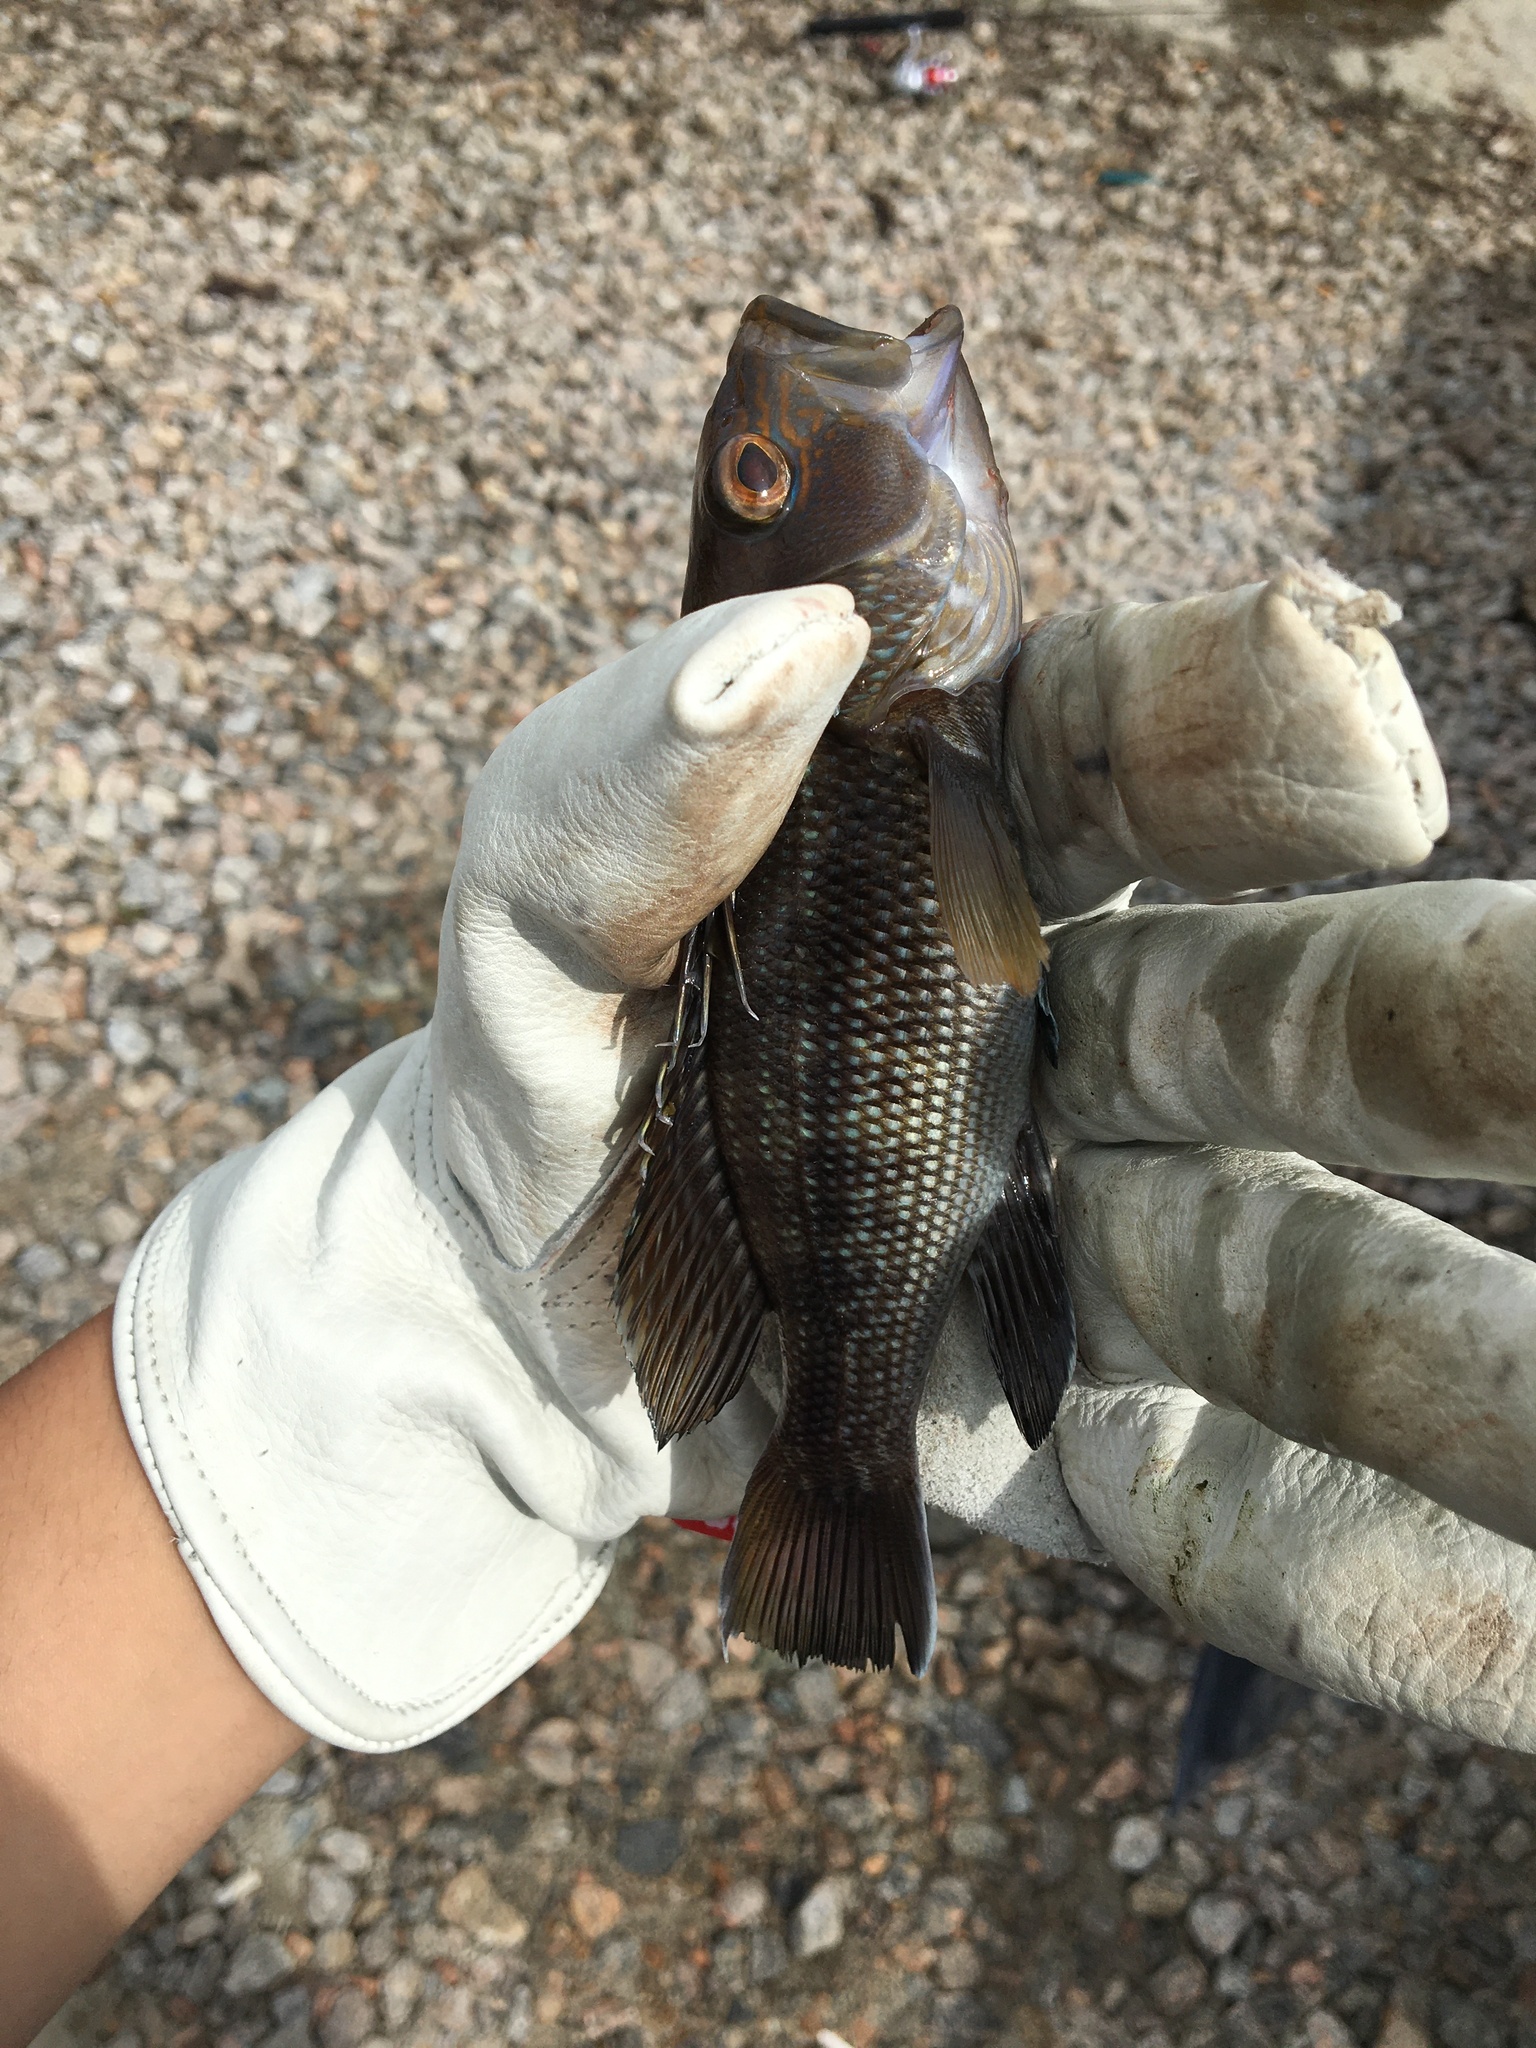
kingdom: Animalia
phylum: Chordata
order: Perciformes
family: Serranidae
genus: Centropristis
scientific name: Centropristis striata
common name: Black sea bass
